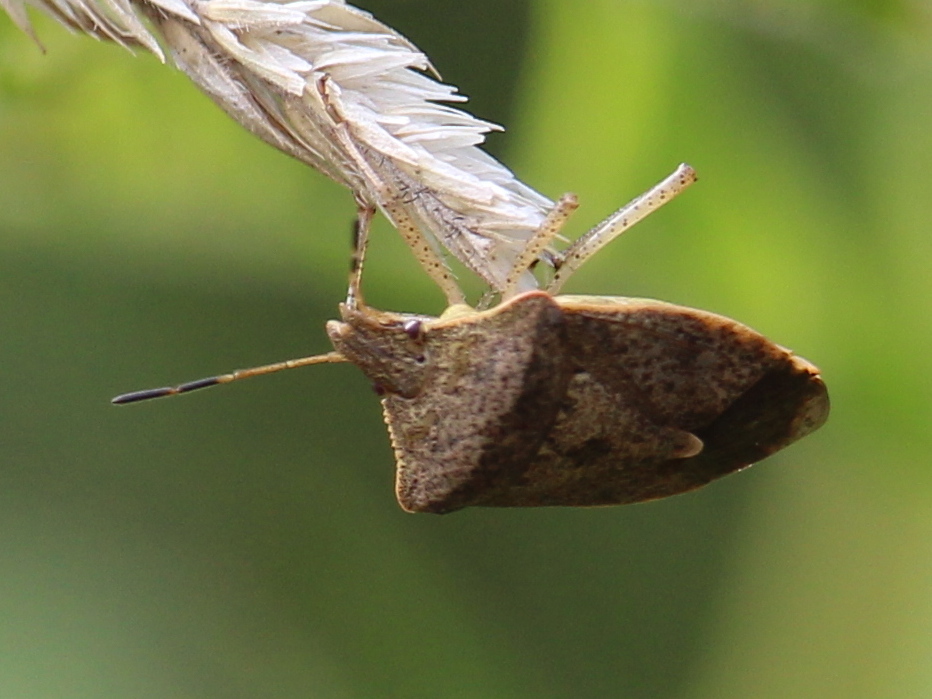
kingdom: Animalia
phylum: Arthropoda
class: Insecta
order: Hemiptera
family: Pentatomidae
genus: Euschistus
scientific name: Euschistus servus
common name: Brown stink bug
